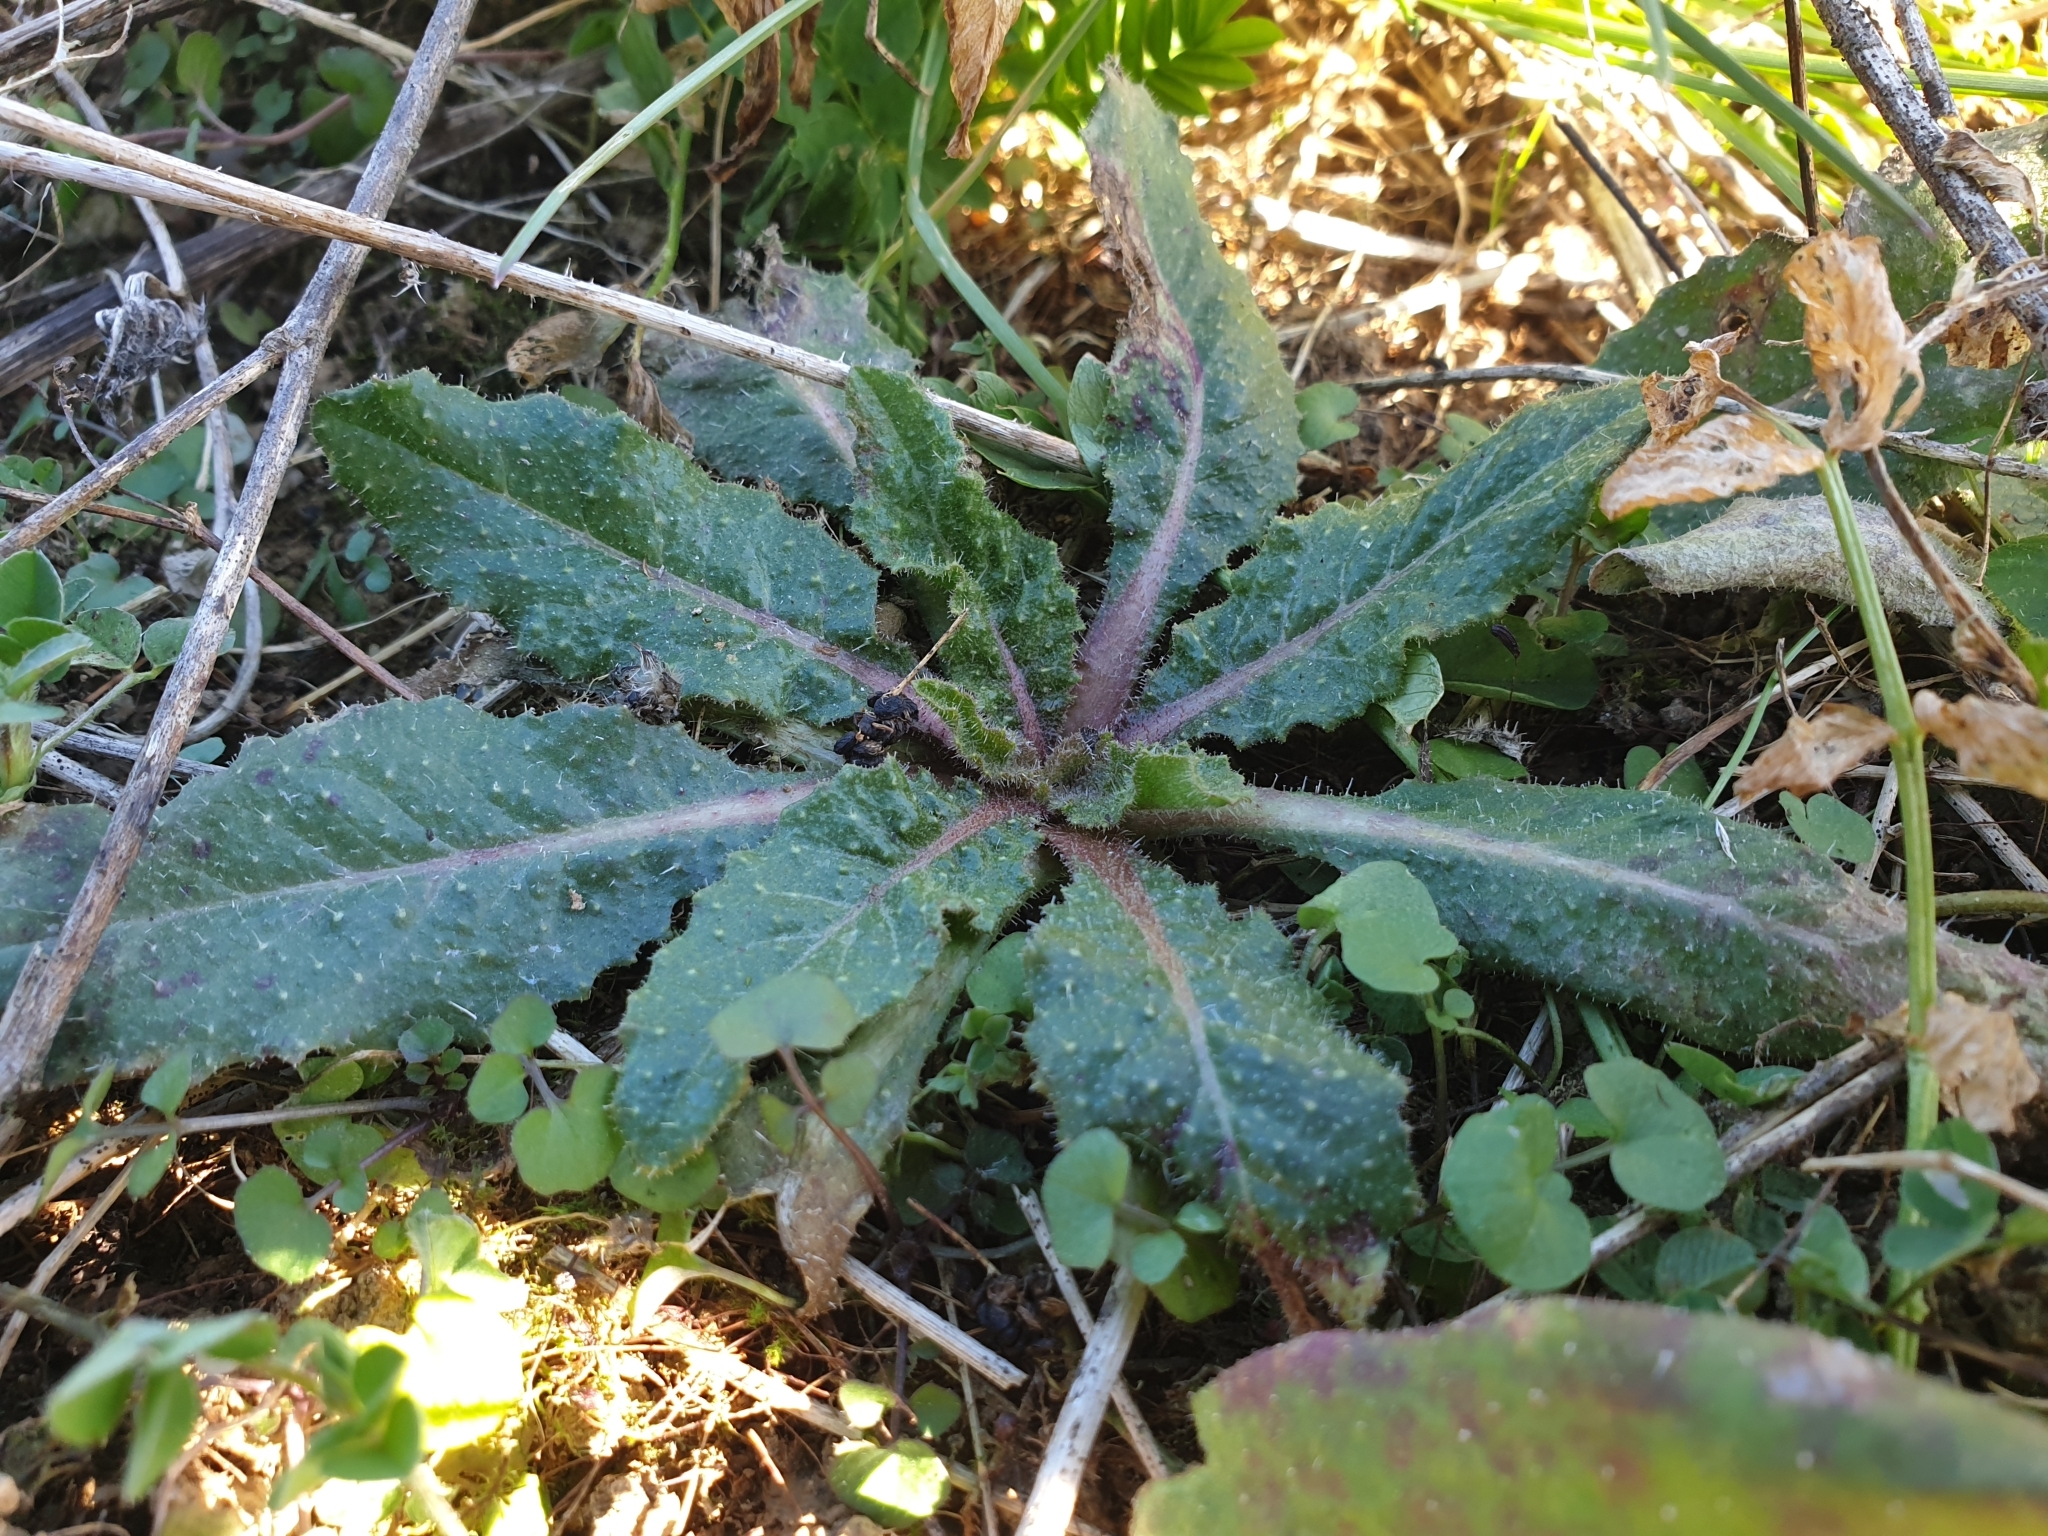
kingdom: Plantae
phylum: Tracheophyta
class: Magnoliopsida
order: Asterales
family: Asteraceae
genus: Helminthotheca
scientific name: Helminthotheca echioides
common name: Ox-tongue
